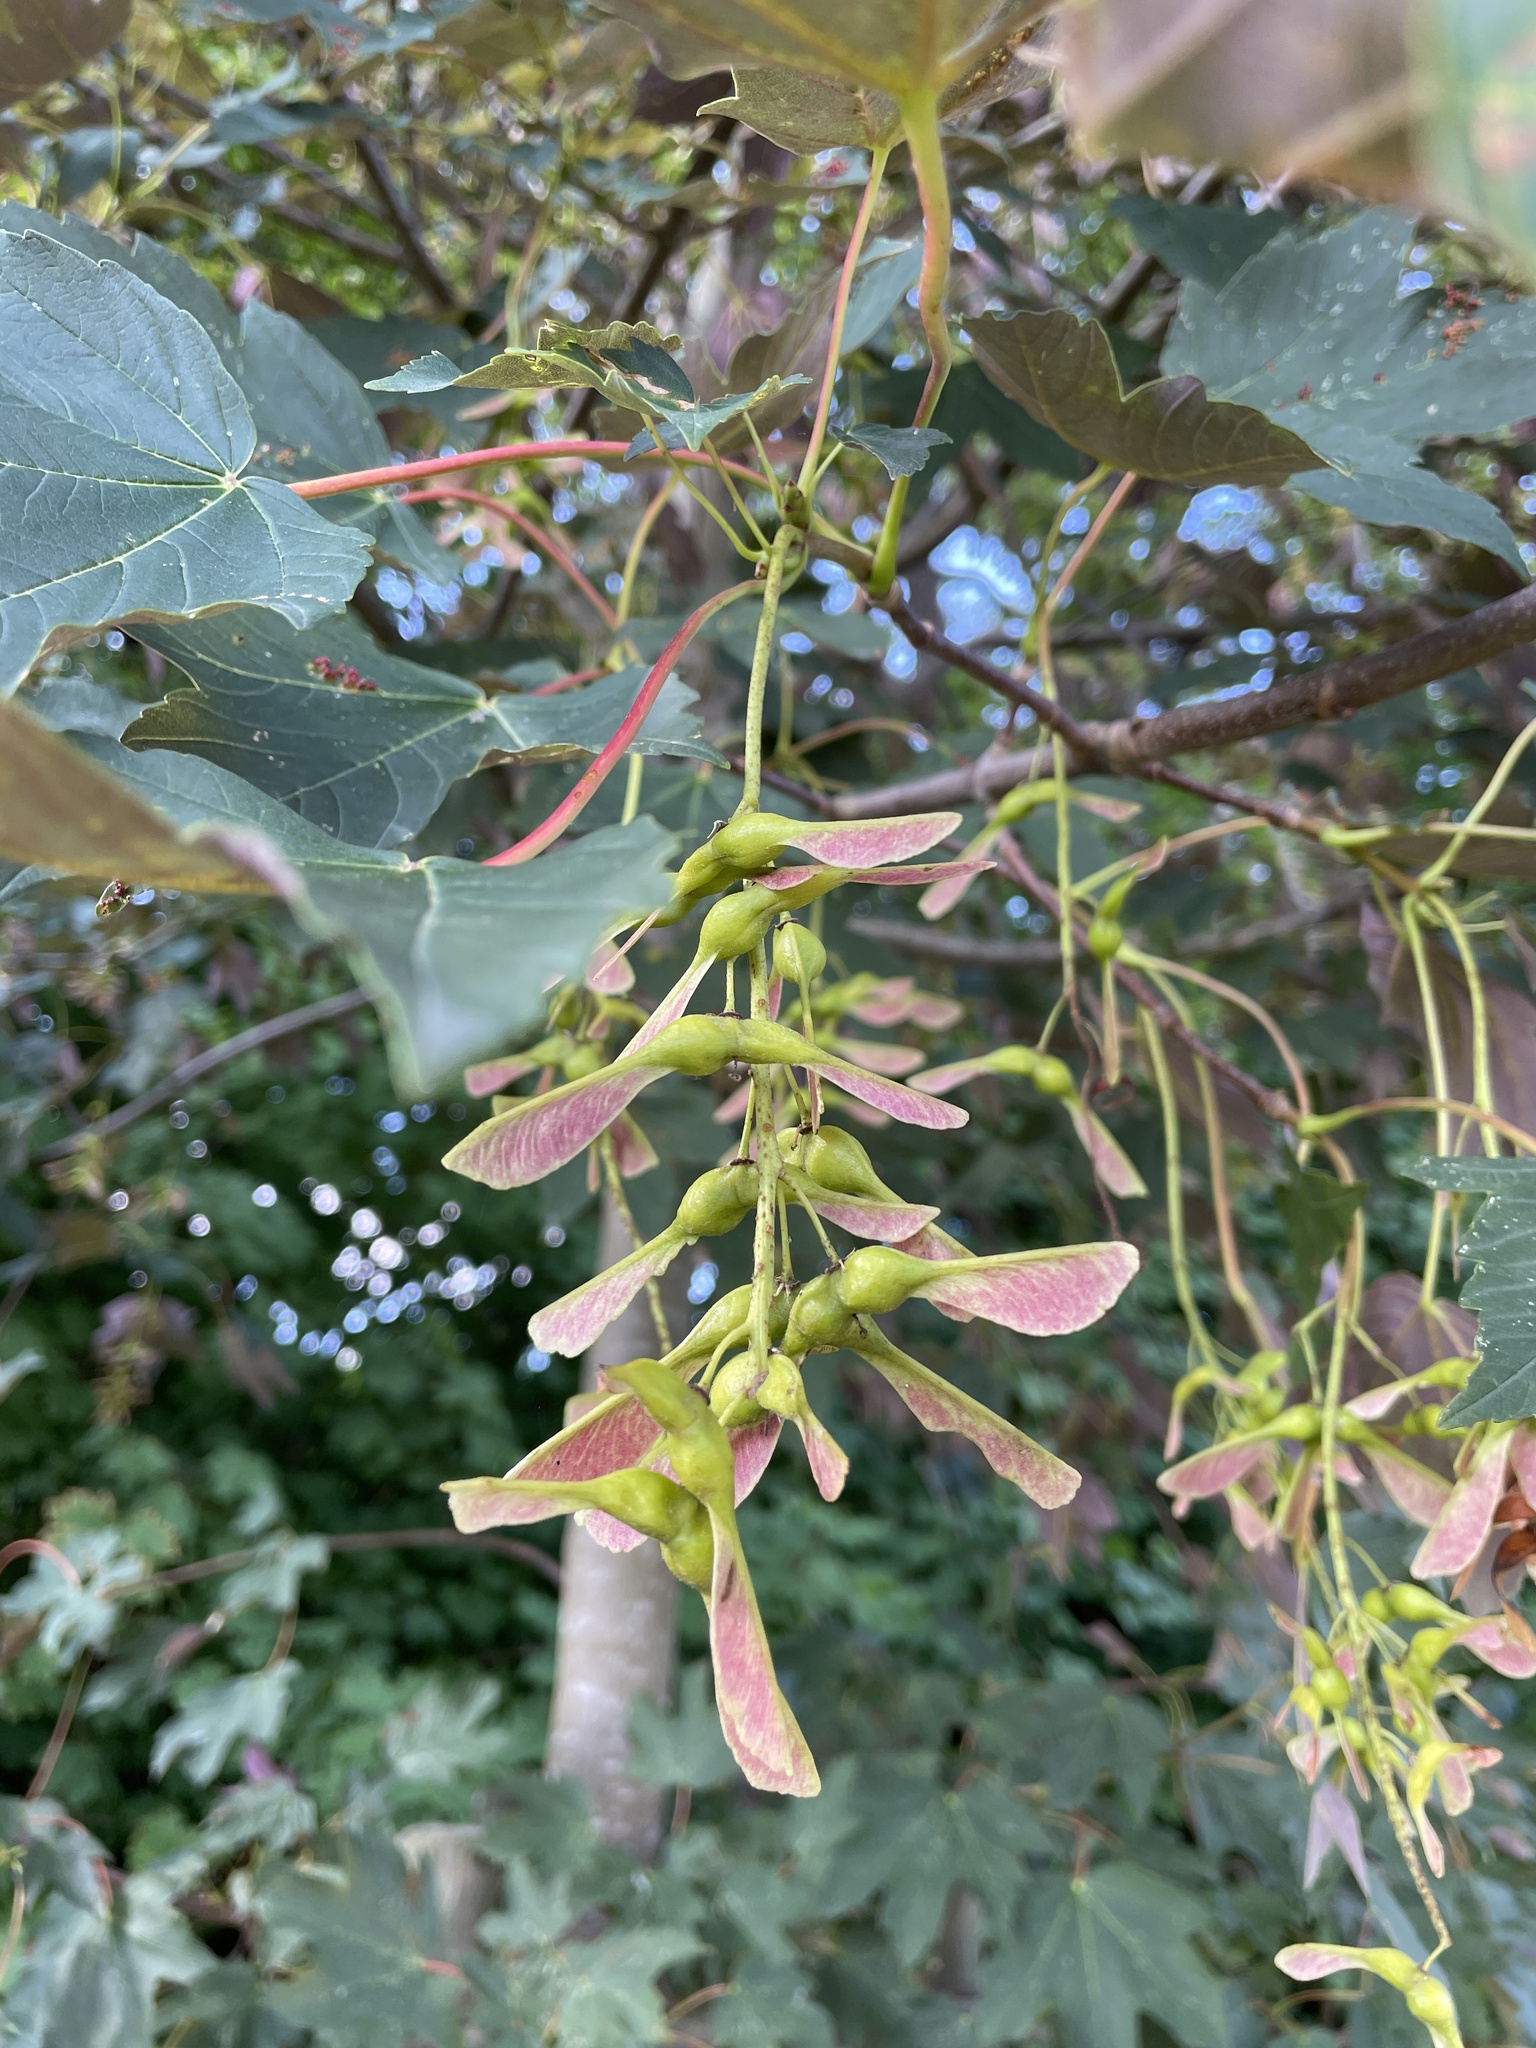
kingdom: Plantae
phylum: Tracheophyta
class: Magnoliopsida
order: Sapindales
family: Sapindaceae
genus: Acer
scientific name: Acer pseudoplatanus
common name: Sycamore
